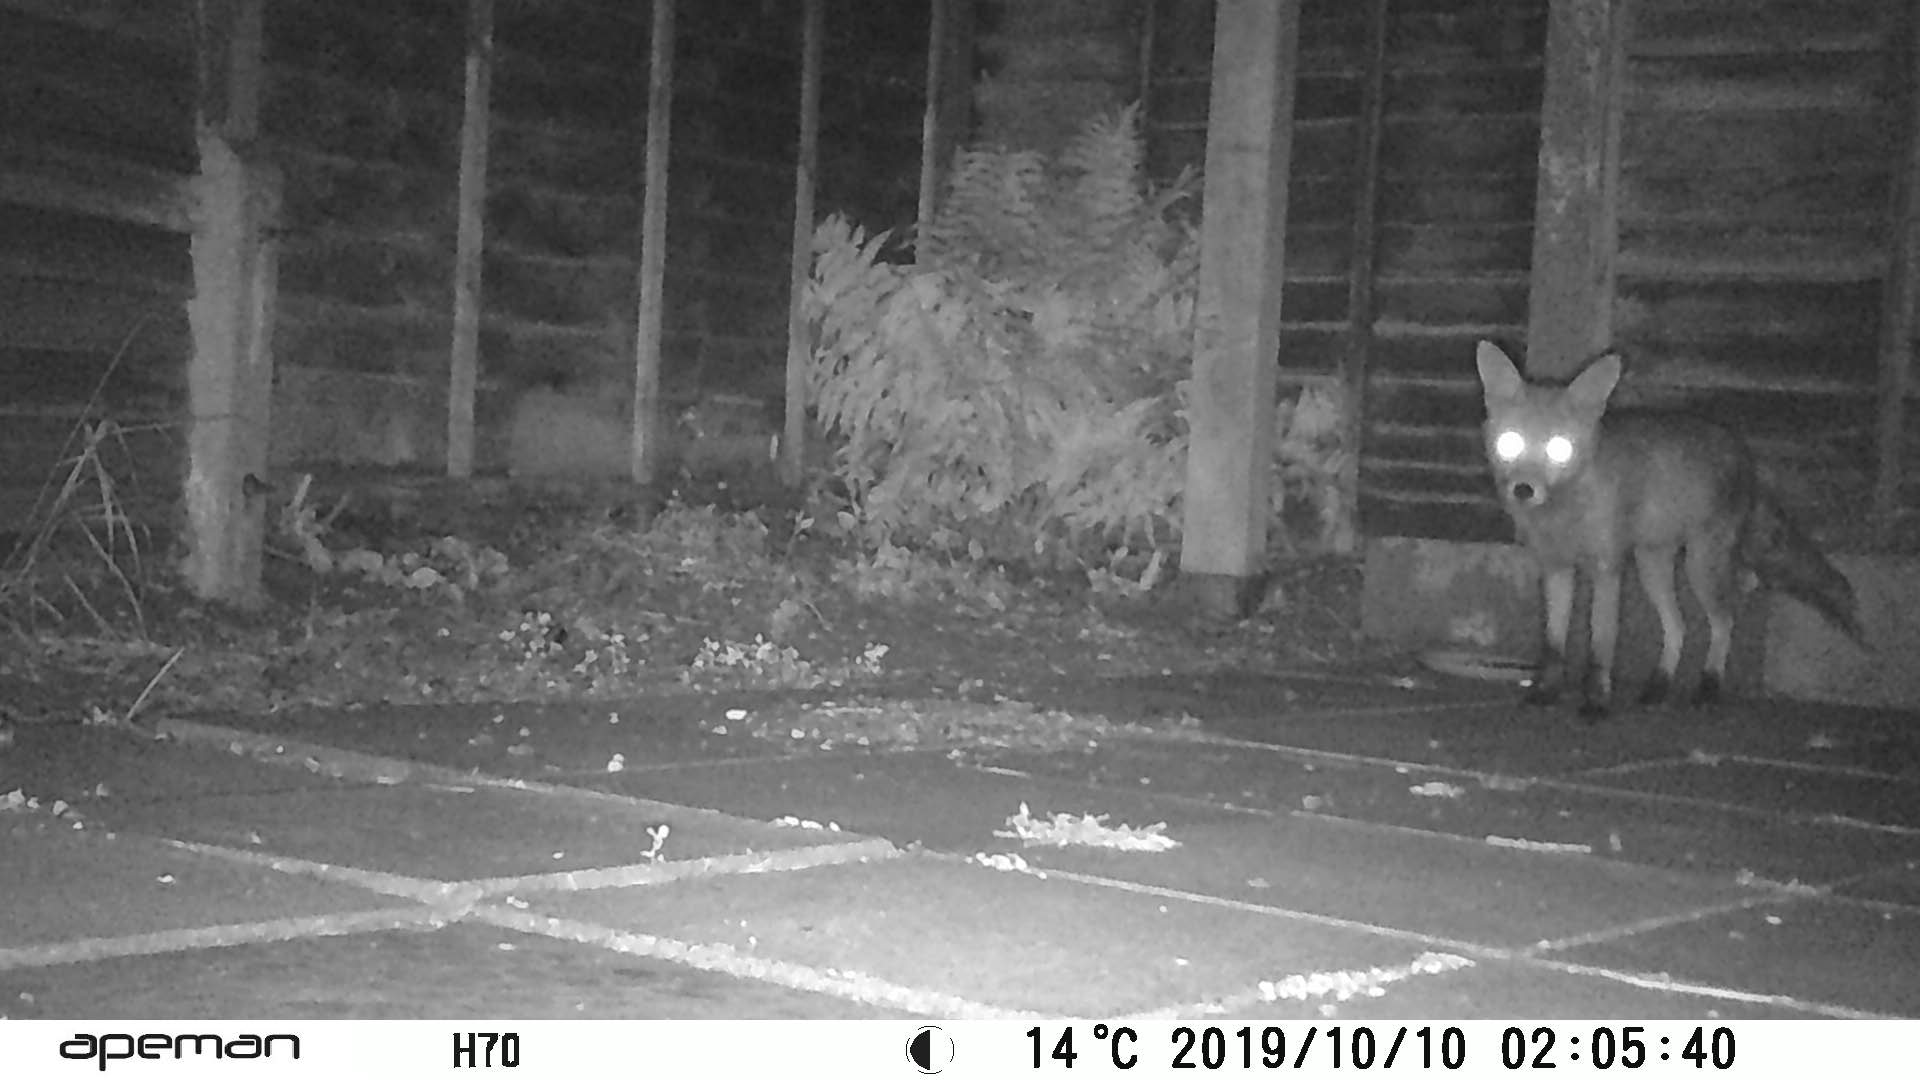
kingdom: Animalia
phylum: Chordata
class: Mammalia
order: Carnivora
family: Canidae
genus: Vulpes
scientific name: Vulpes vulpes
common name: Red fox
